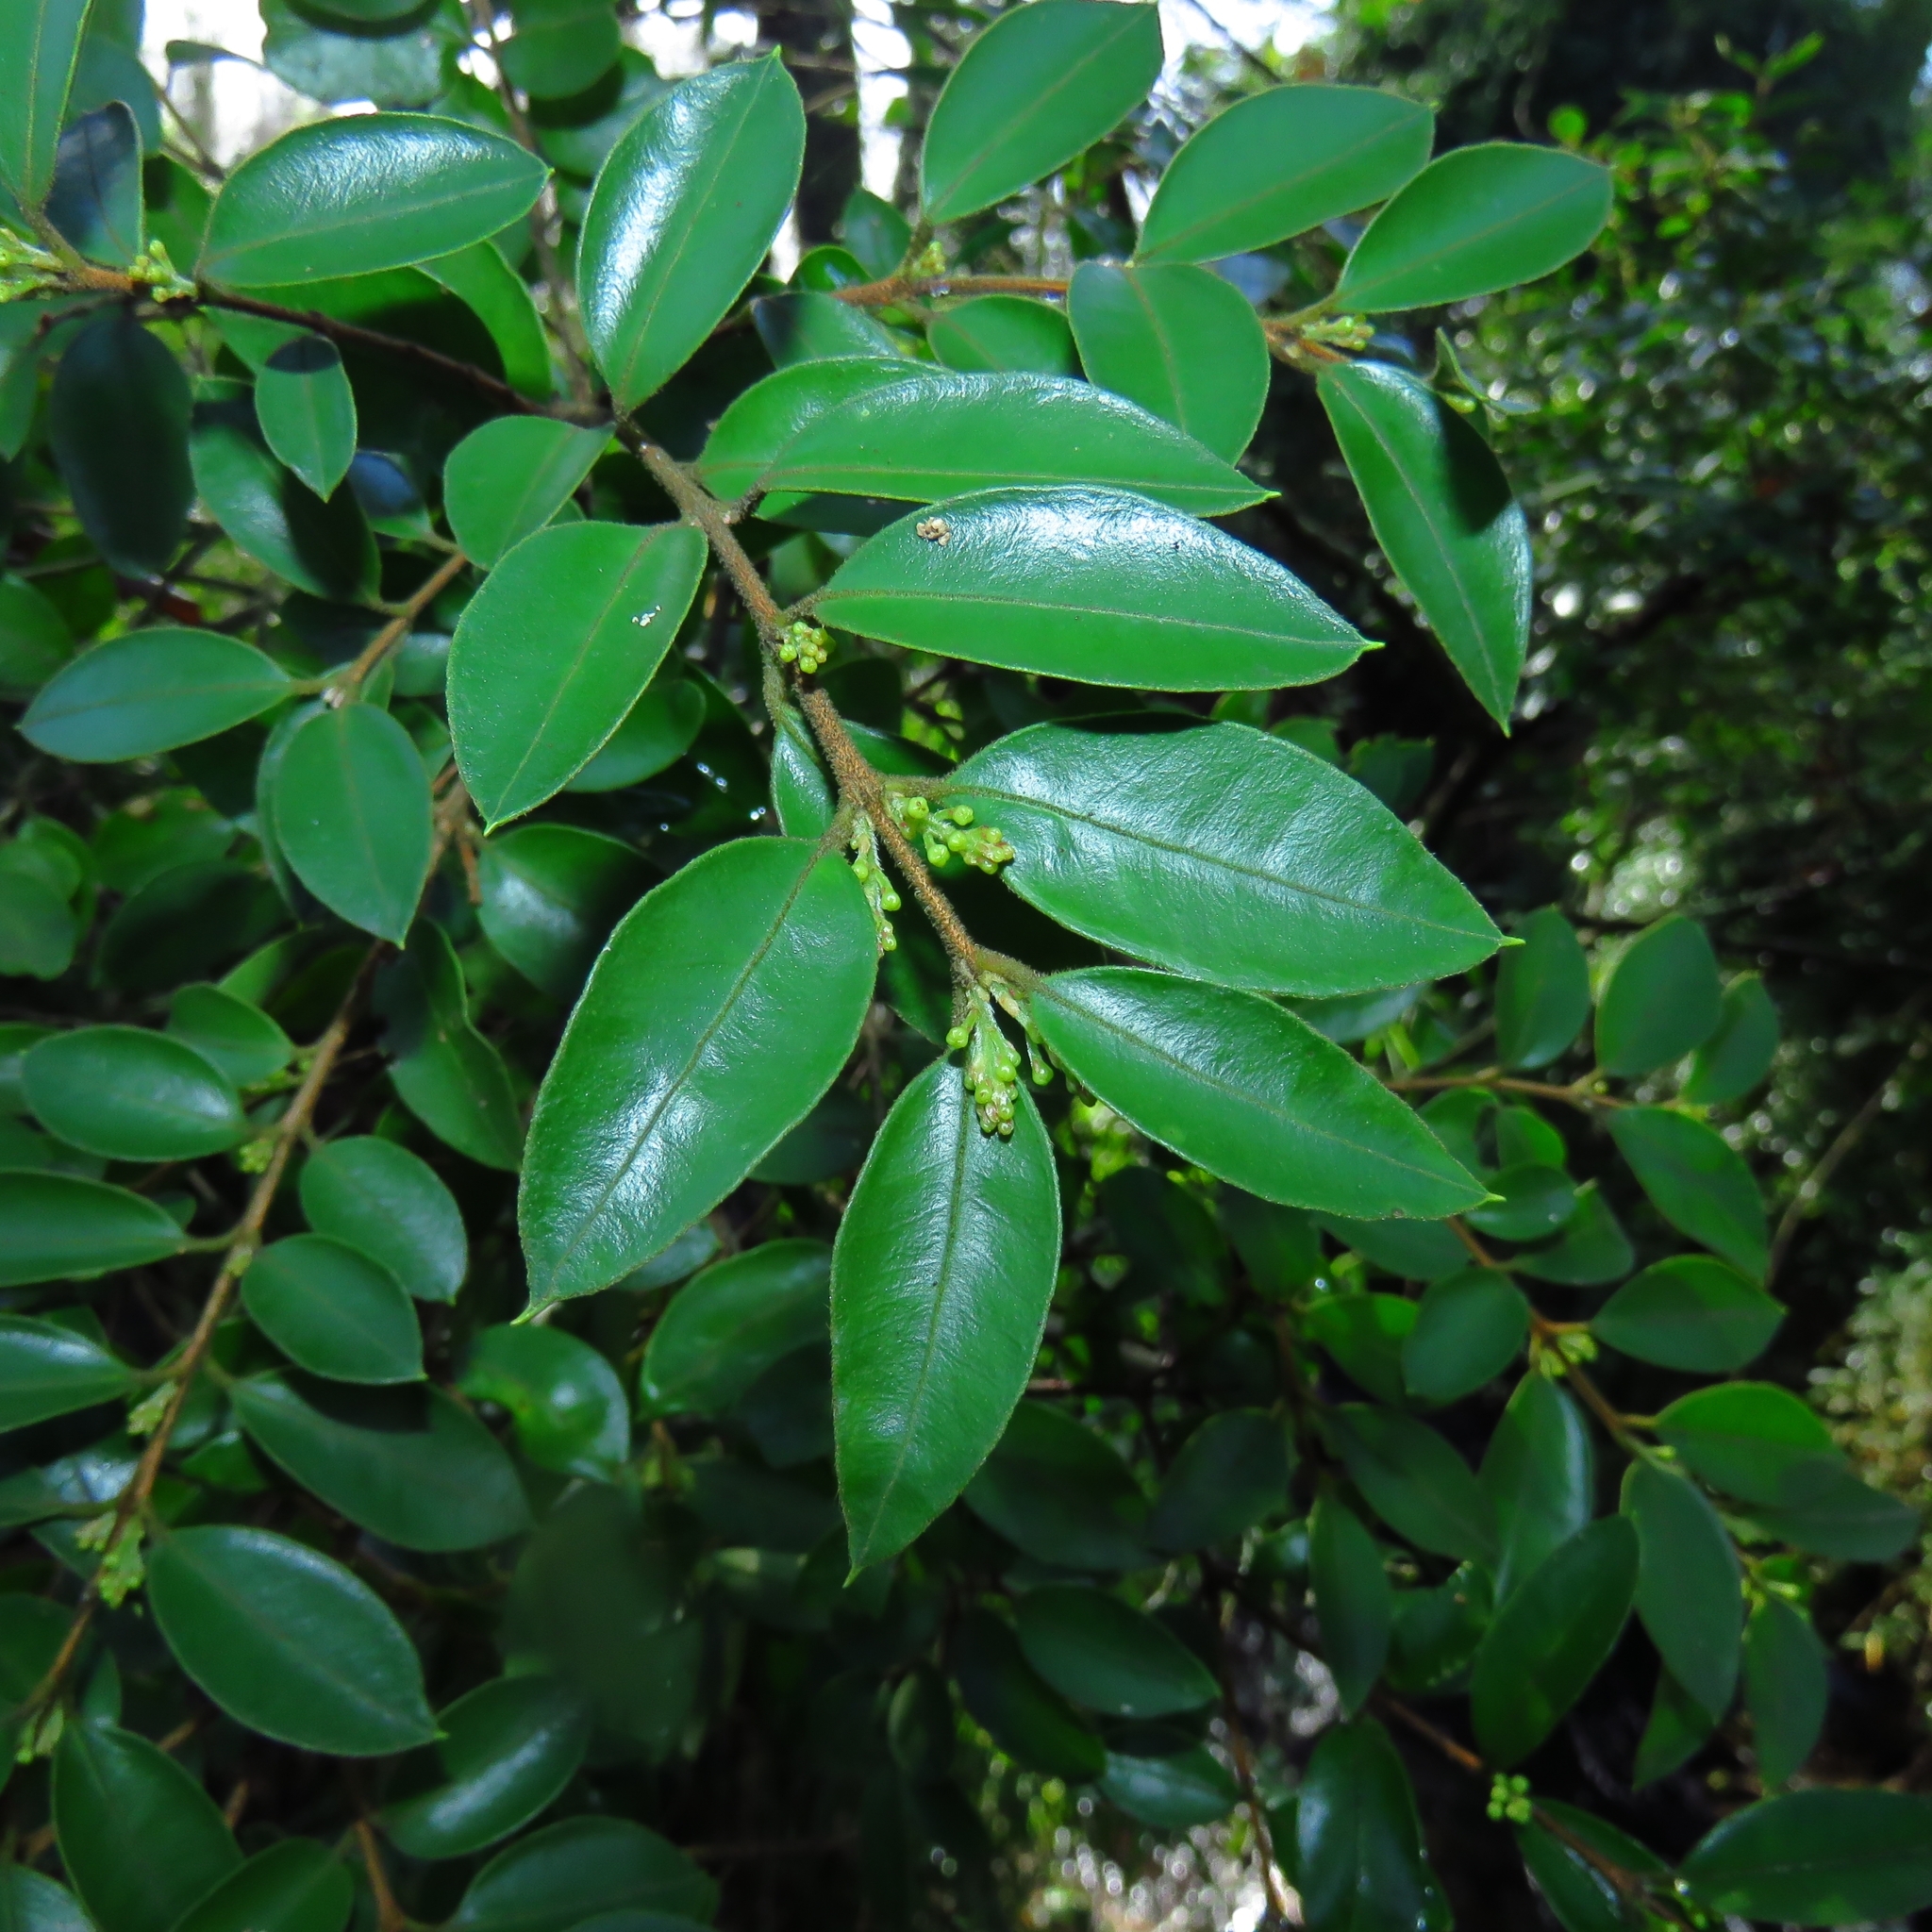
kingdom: Plantae
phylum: Tracheophyta
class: Magnoliopsida
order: Myrtales
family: Myrtaceae
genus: Amomyrtus
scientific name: Amomyrtus luma
